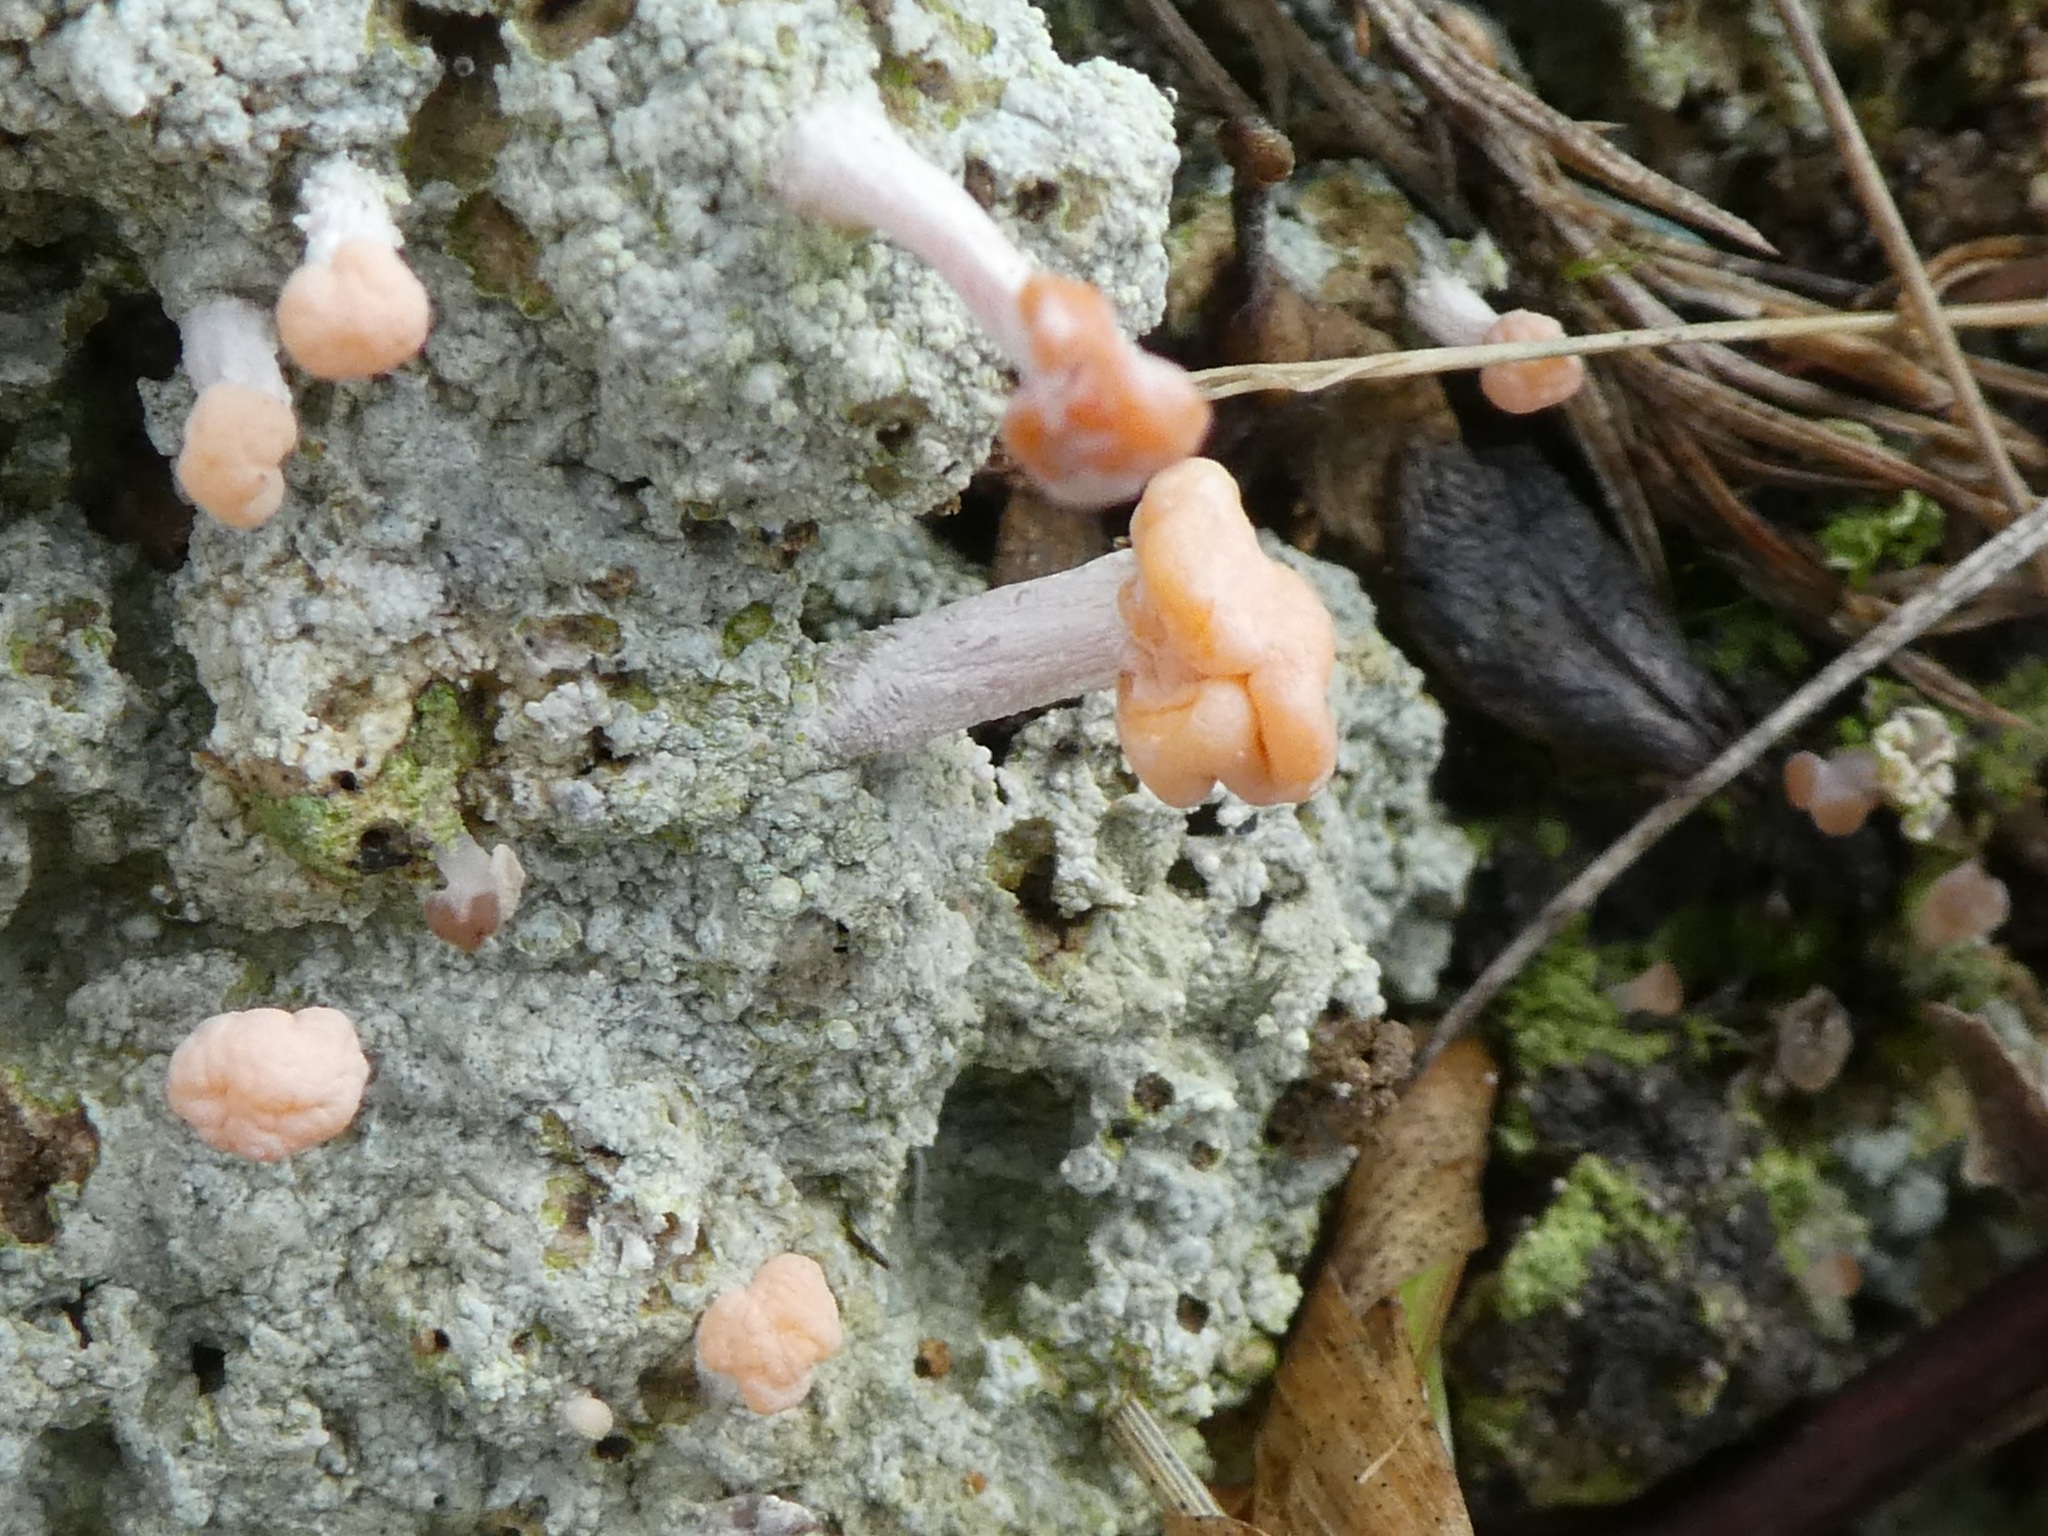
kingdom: Fungi
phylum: Ascomycota
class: Lecanoromycetes
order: Pertusariales
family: Icmadophilaceae
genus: Dibaeis
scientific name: Dibaeis arcuata
